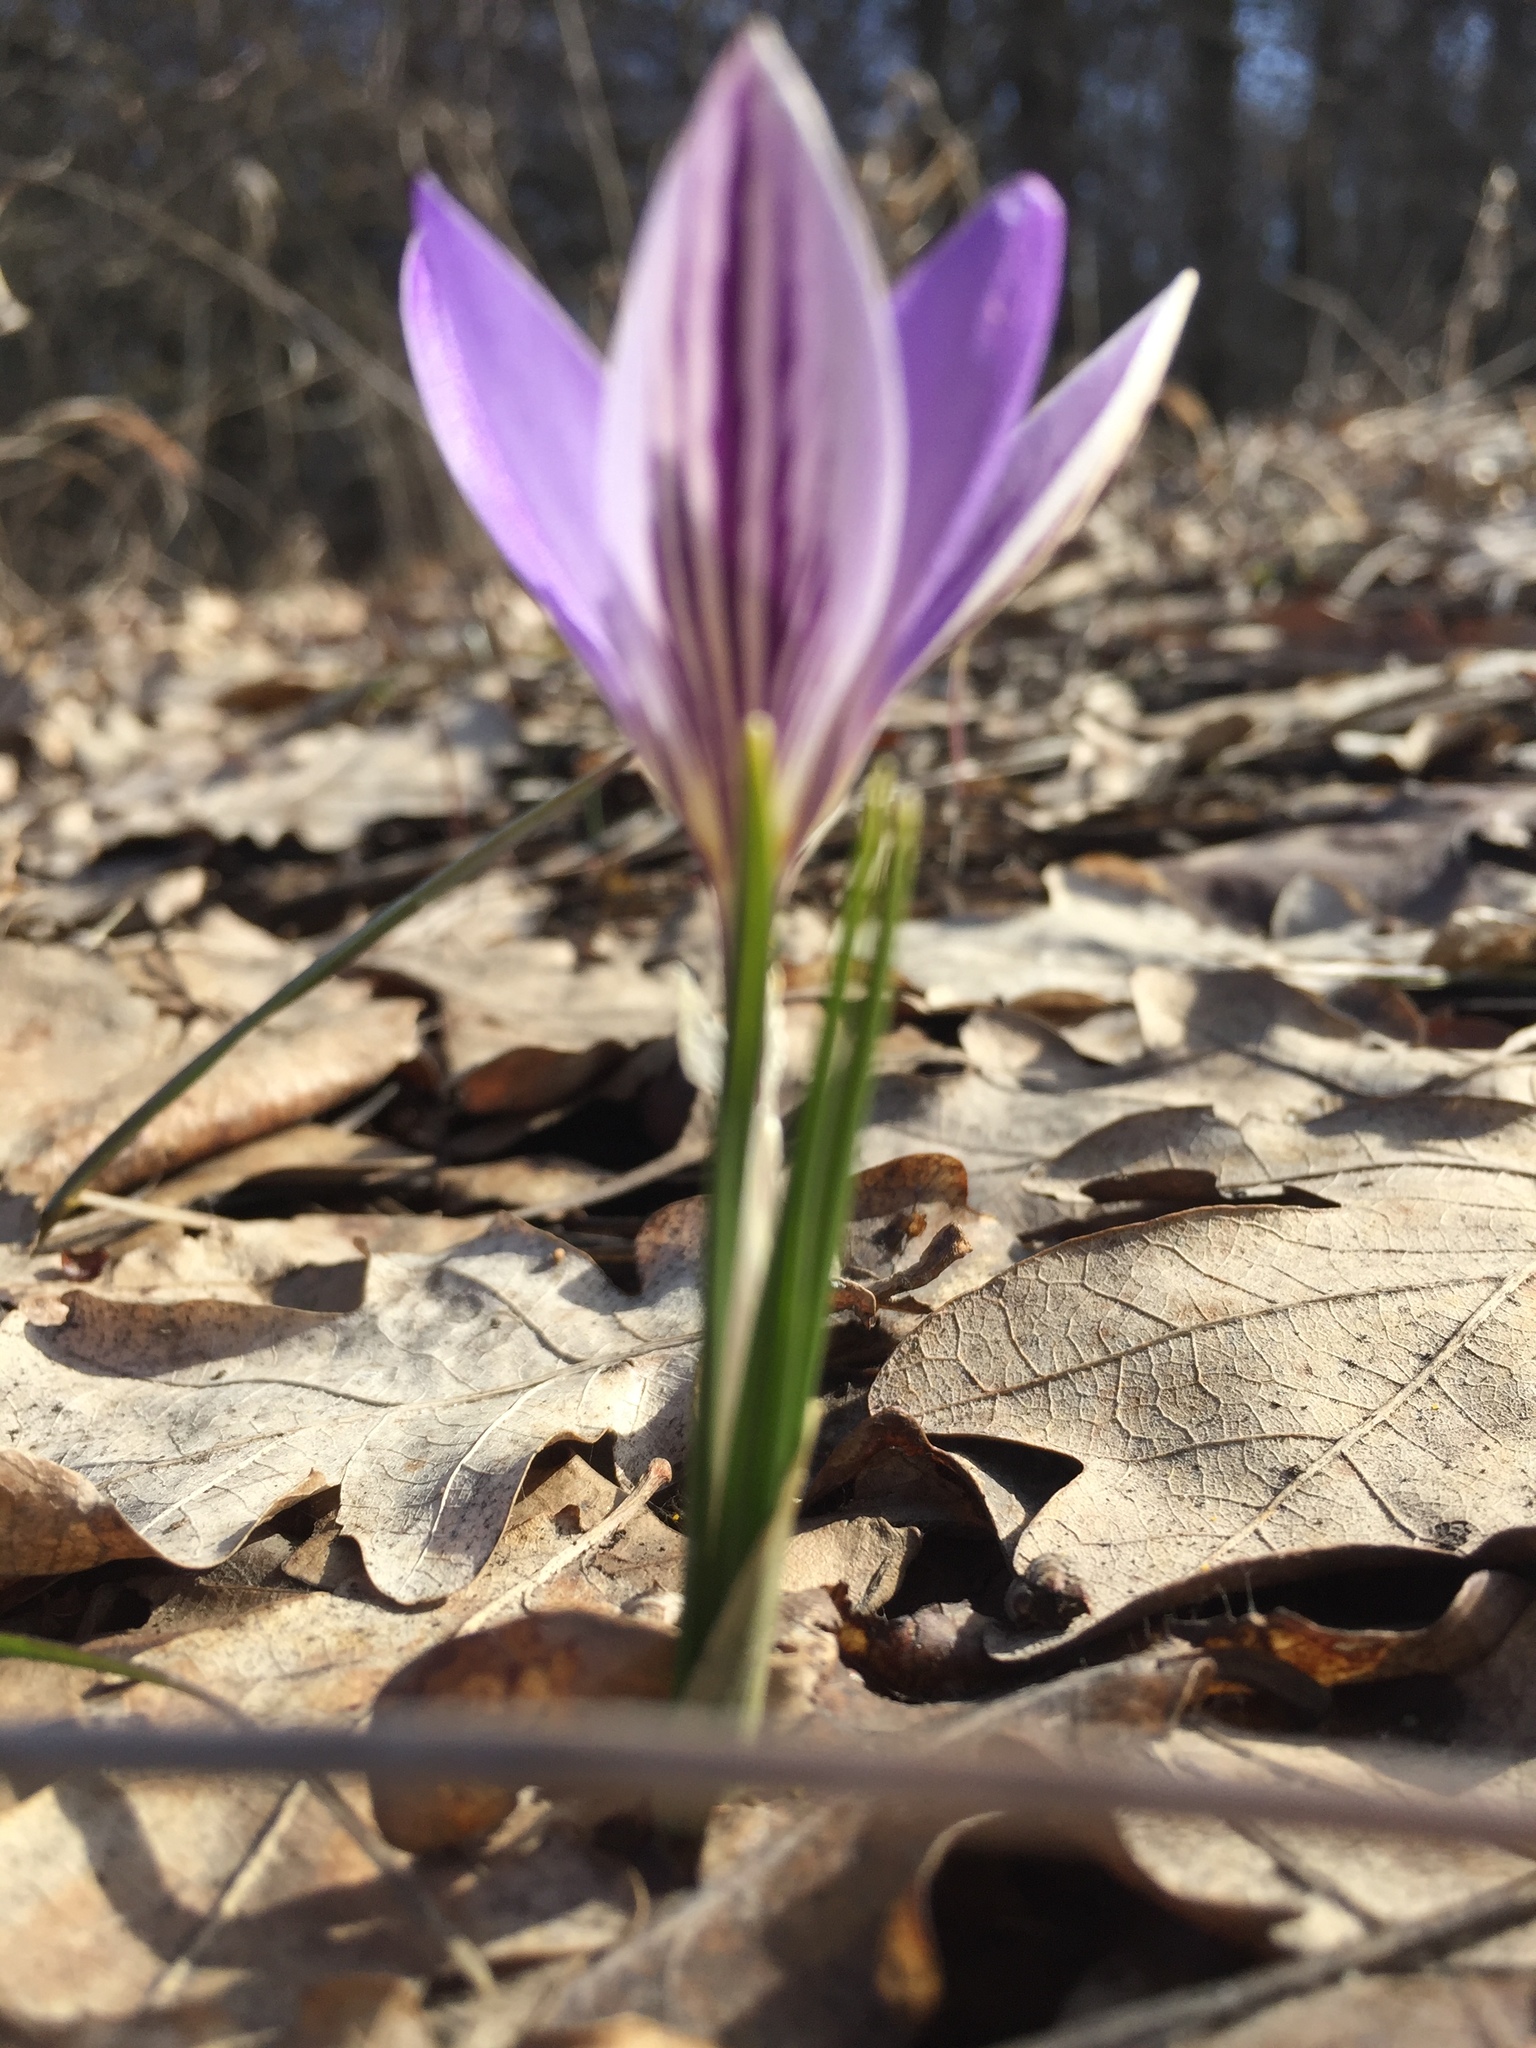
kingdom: Plantae
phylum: Tracheophyta
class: Liliopsida
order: Asparagales
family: Iridaceae
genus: Crocus
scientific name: Crocus reticulatus
